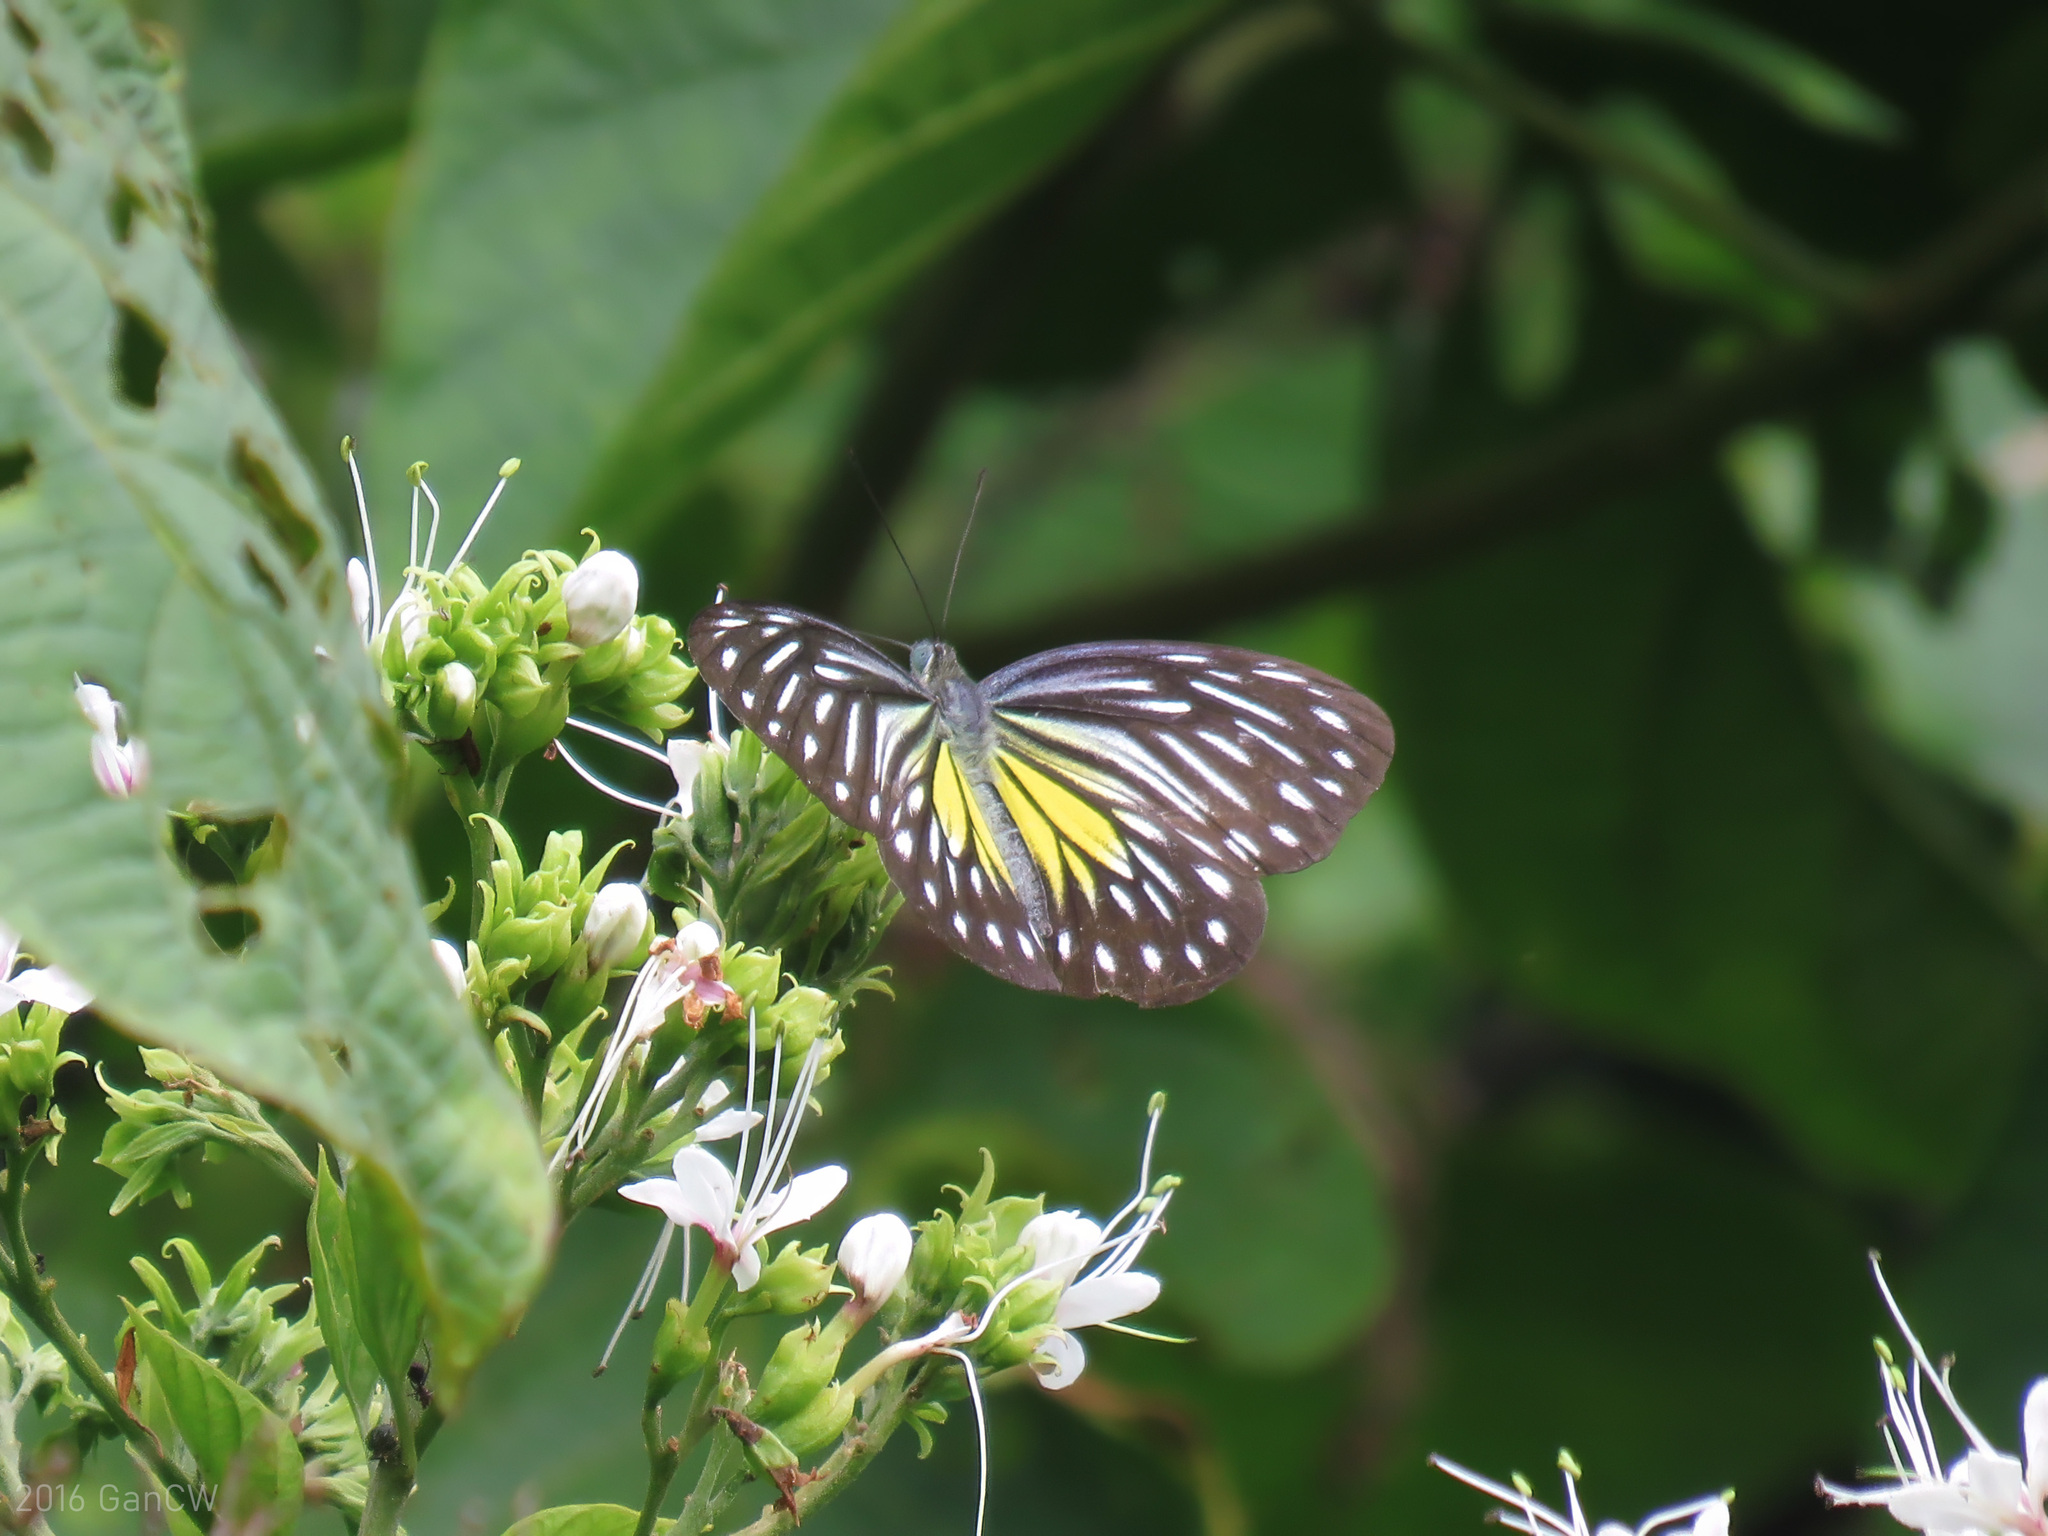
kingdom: Animalia
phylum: Arthropoda
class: Insecta
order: Lepidoptera
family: Pieridae
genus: Pareronia
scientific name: Pareronia valeria
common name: Common wanderer?
